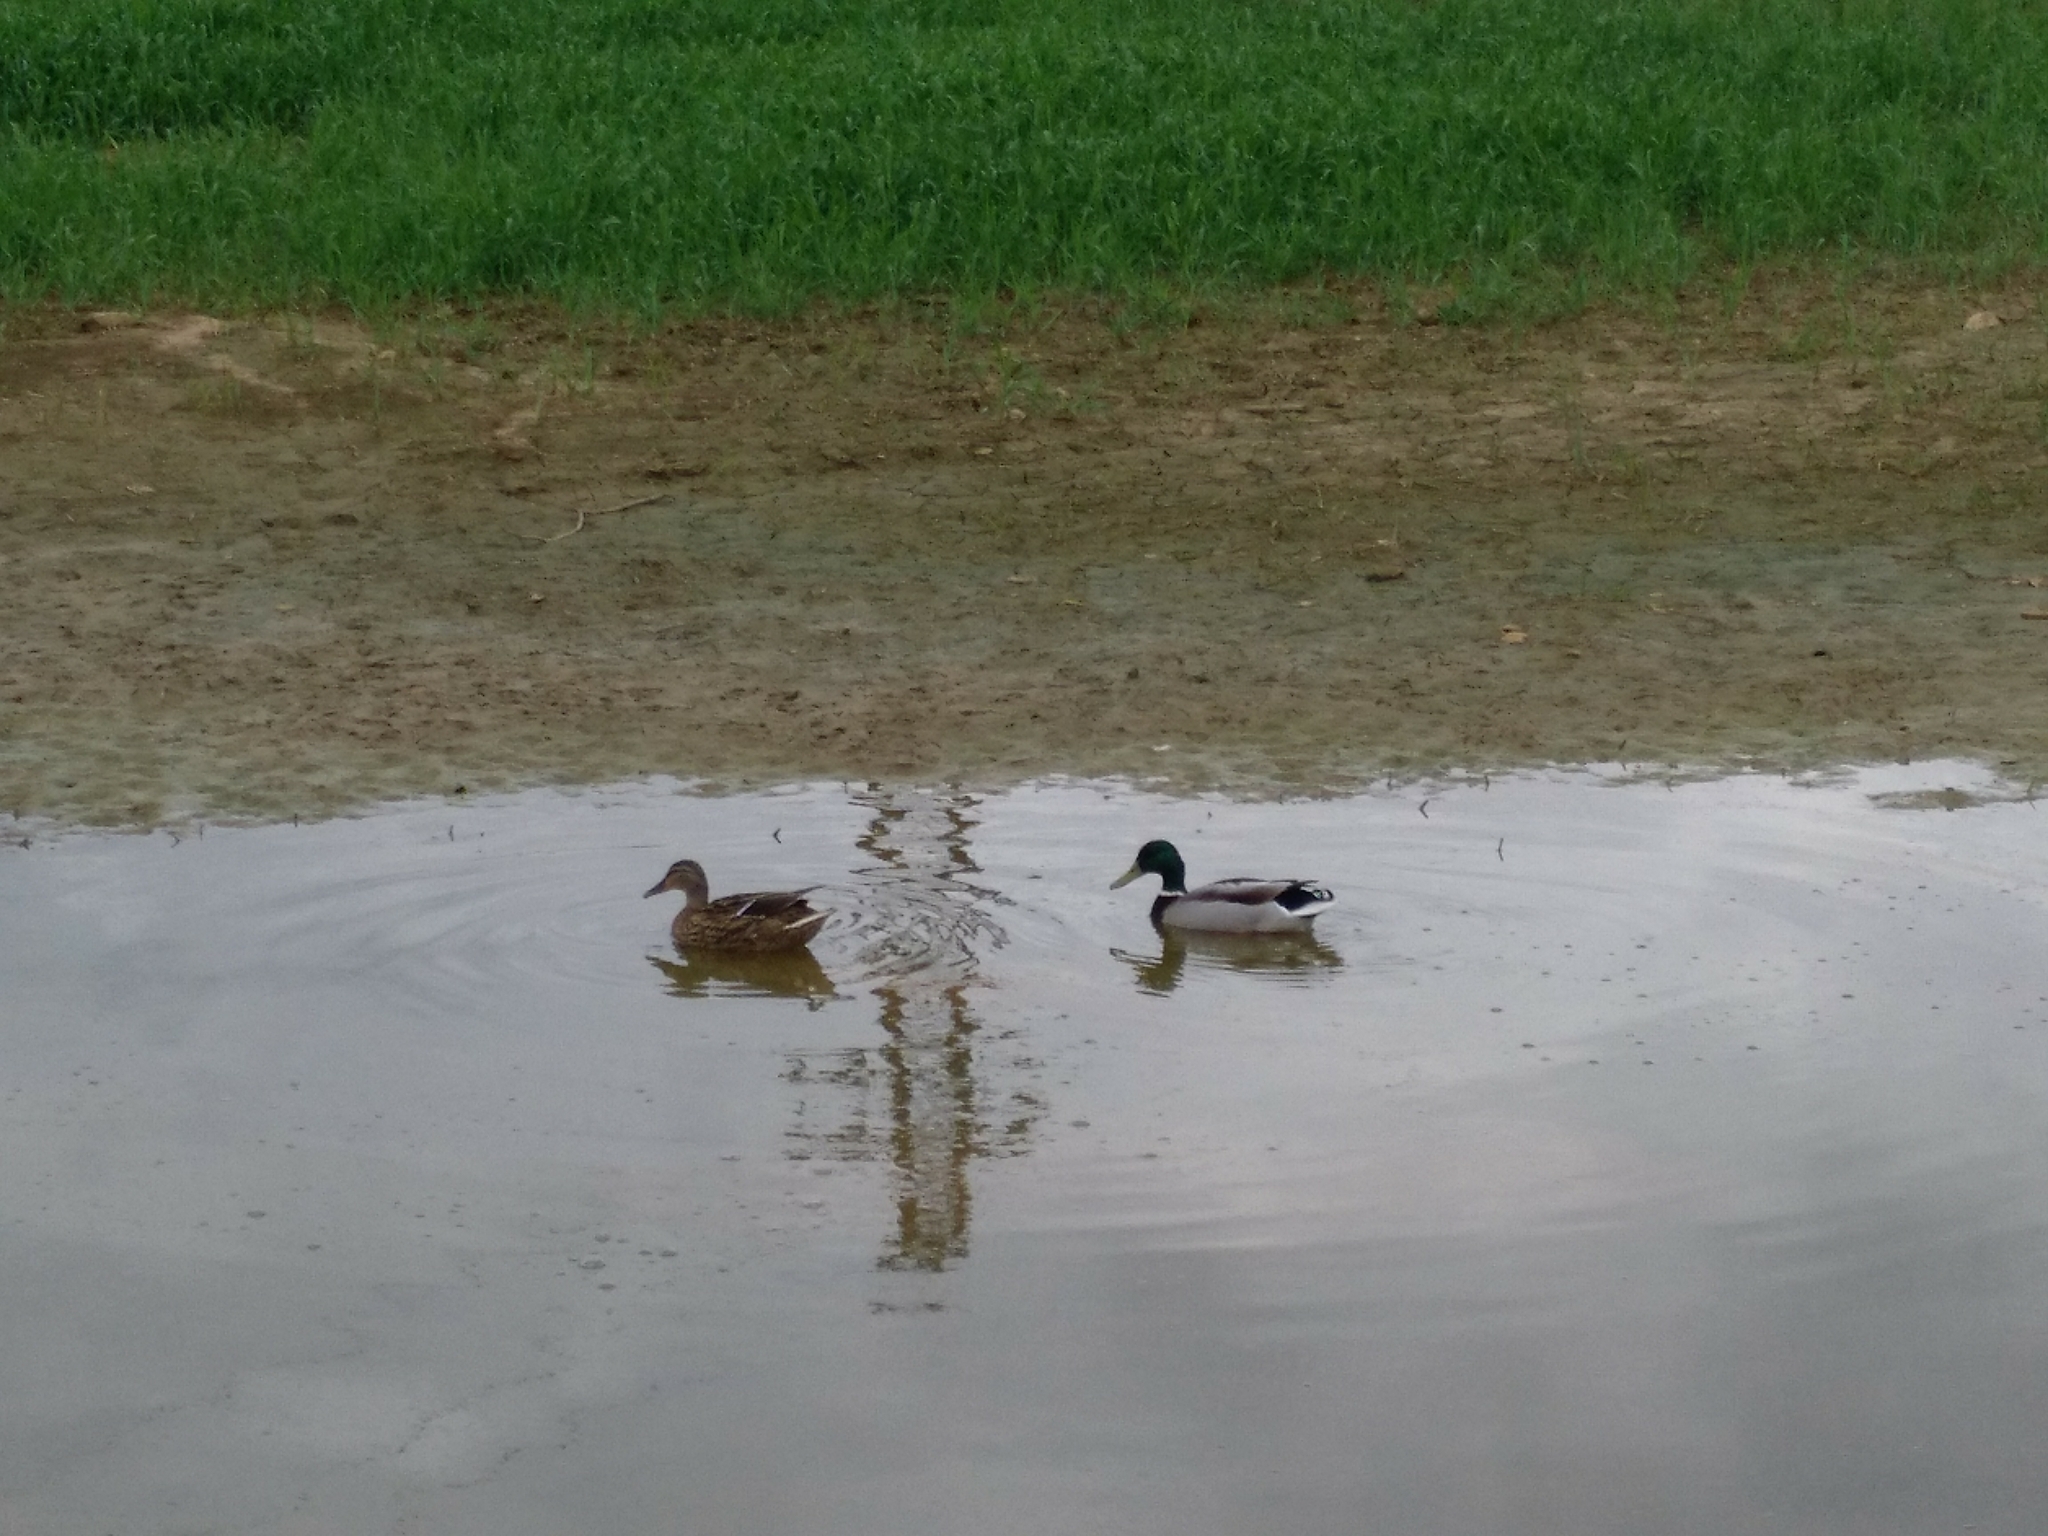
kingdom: Animalia
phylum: Chordata
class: Aves
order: Anseriformes
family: Anatidae
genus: Anas
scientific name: Anas platyrhynchos
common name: Mallard
